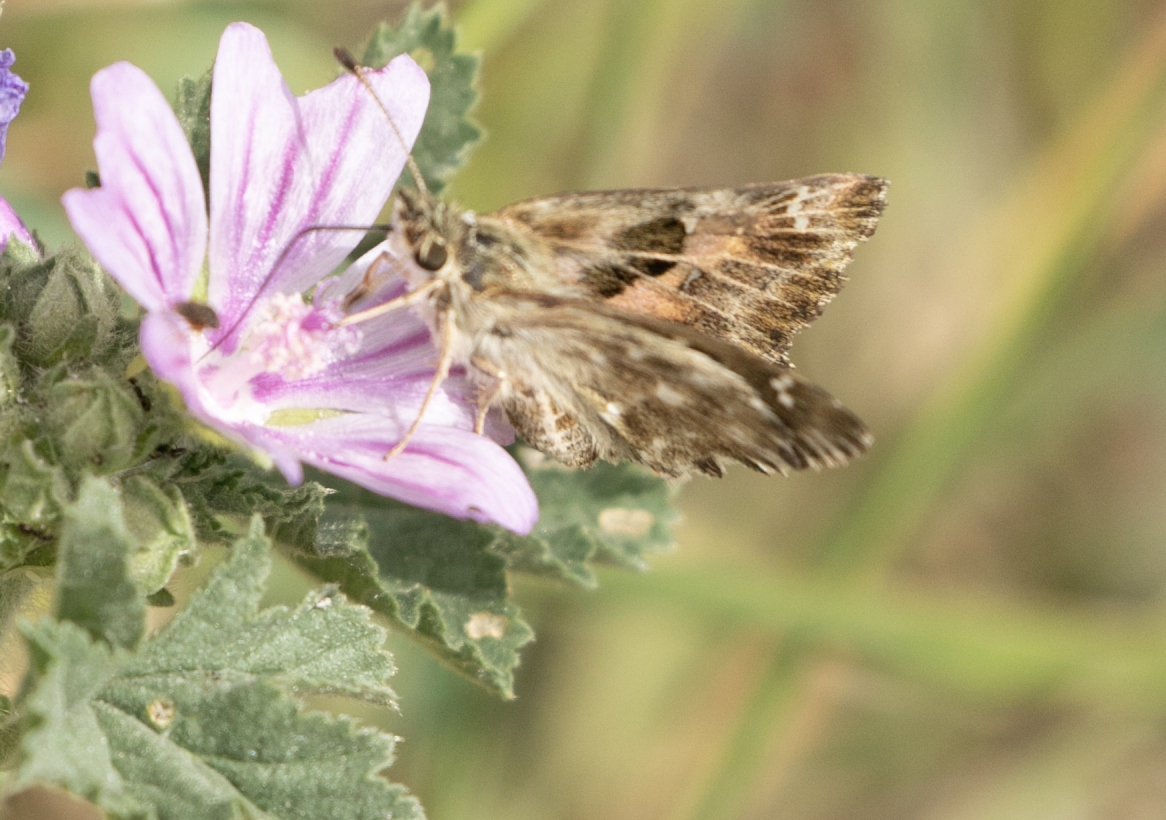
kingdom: Animalia
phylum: Arthropoda
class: Insecta
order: Lepidoptera
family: Hesperiidae
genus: Carcharodus
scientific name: Carcharodus alceae
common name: Mallow skipper
